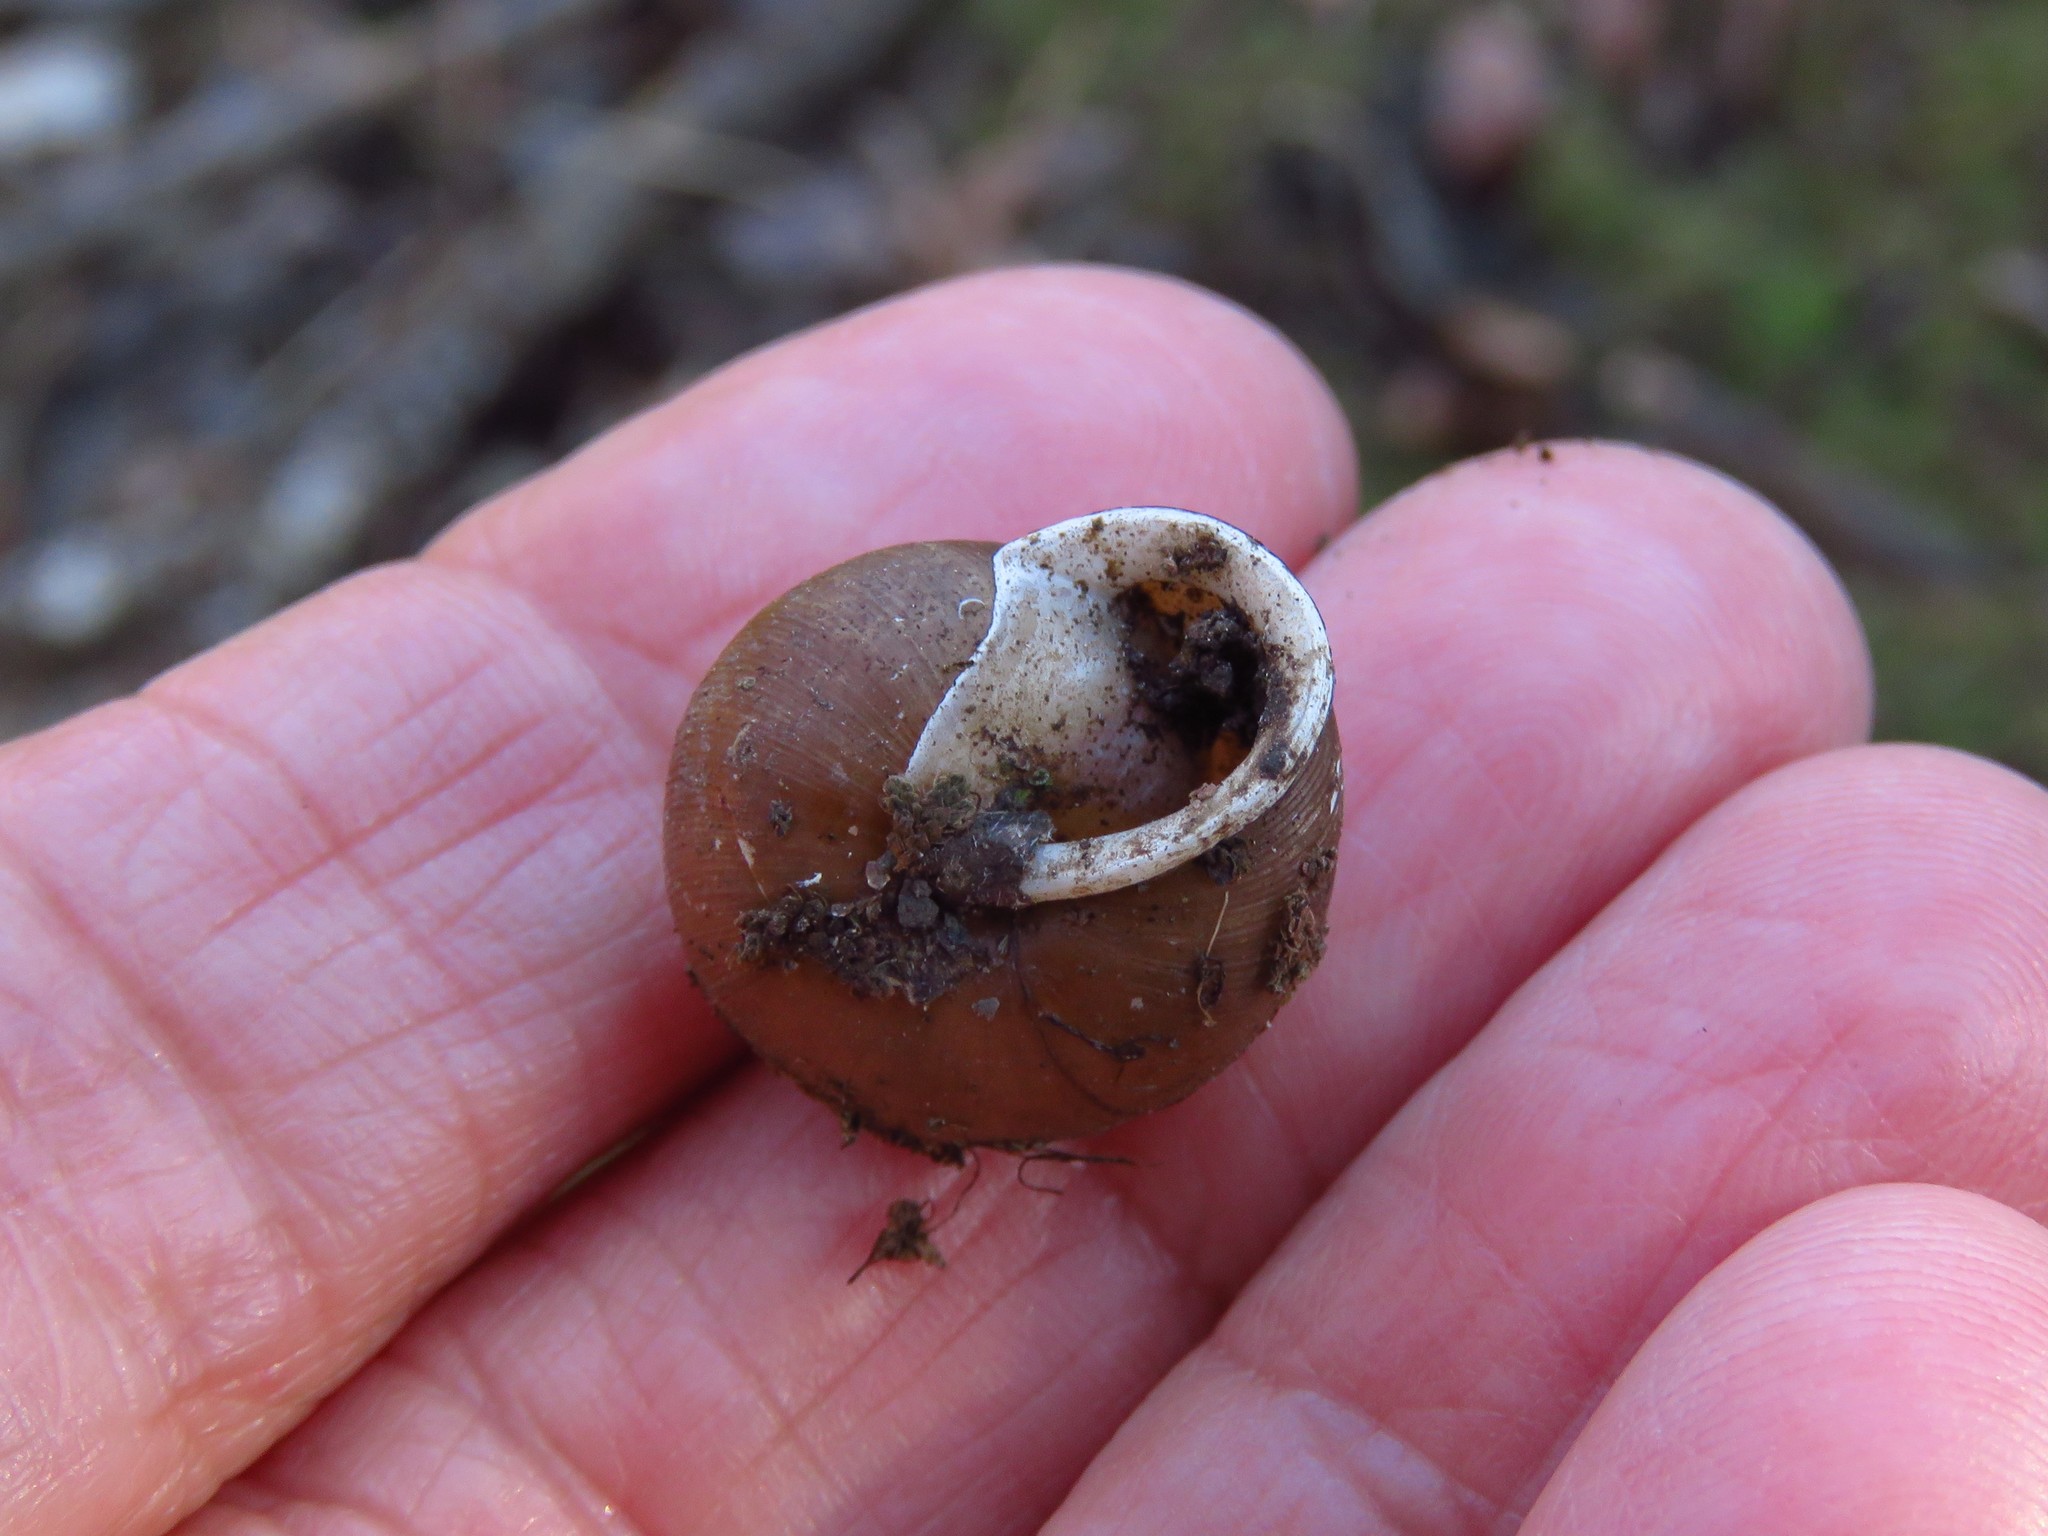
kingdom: Animalia
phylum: Mollusca
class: Gastropoda
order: Stylommatophora
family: Polygyridae
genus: Mesodon
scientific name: Mesodon thyroidus
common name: White-lip globe
